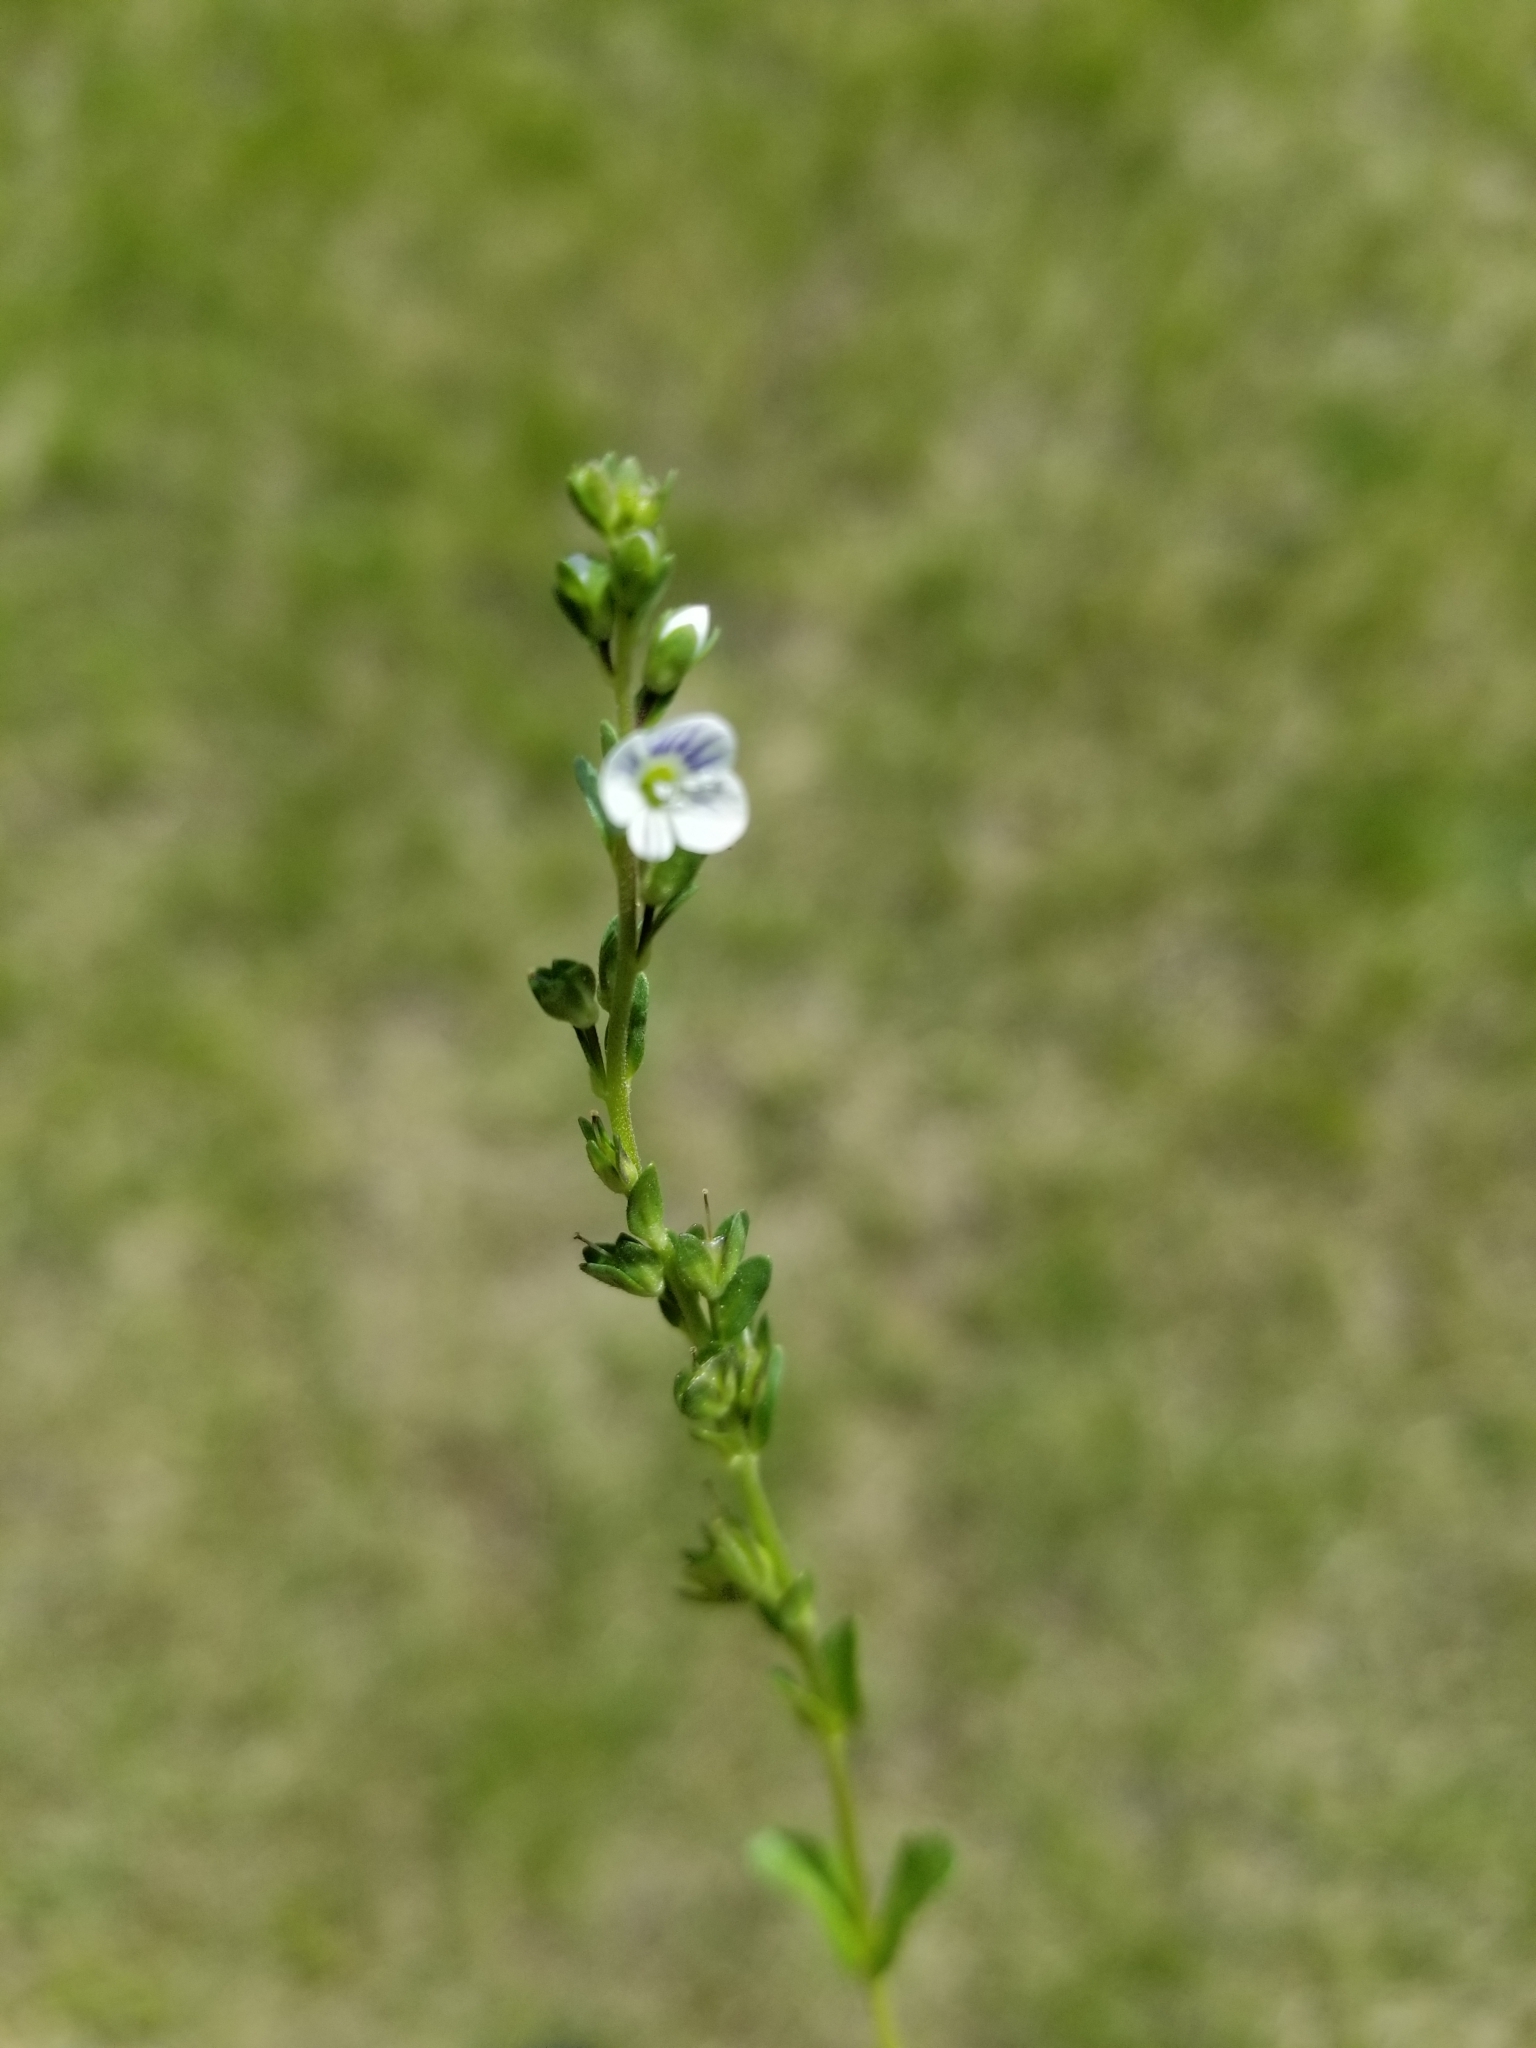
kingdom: Plantae
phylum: Tracheophyta
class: Magnoliopsida
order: Lamiales
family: Plantaginaceae
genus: Veronica
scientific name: Veronica serpyllifolia
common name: Thyme-leaved speedwell
